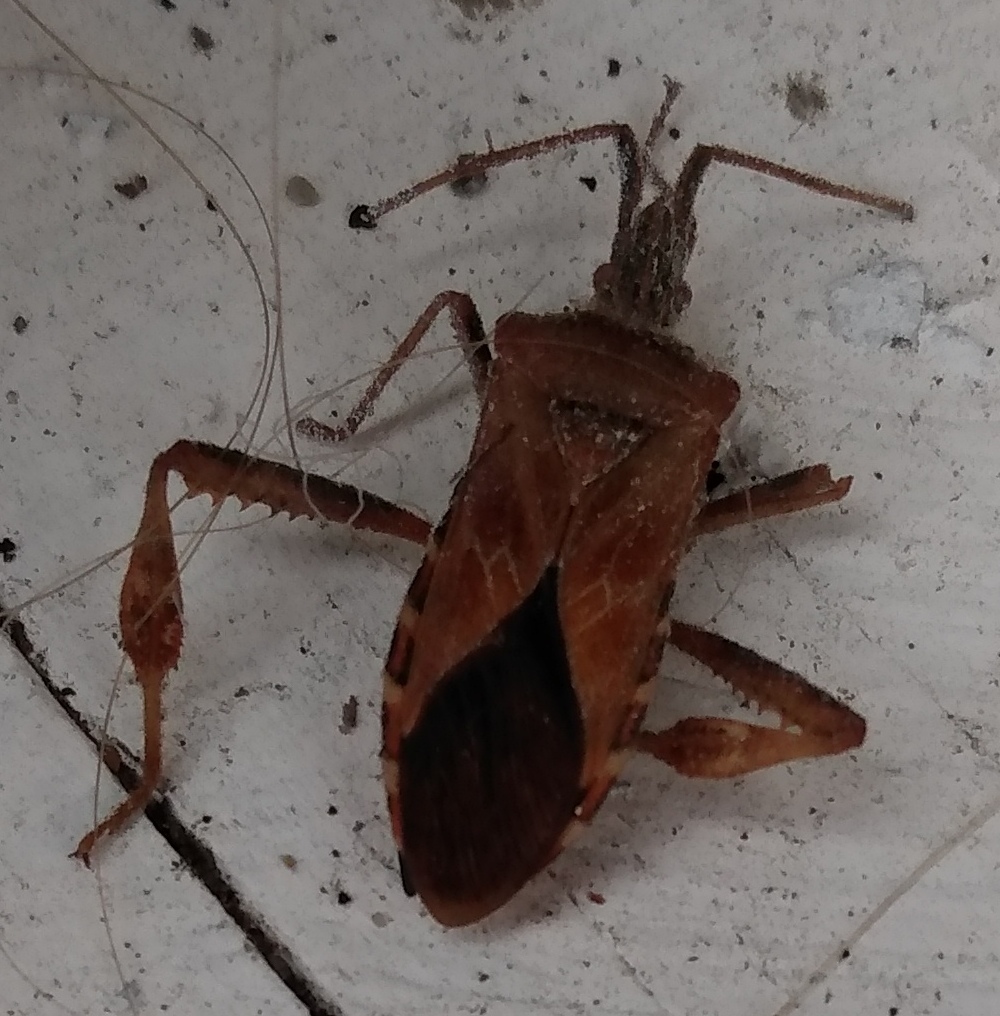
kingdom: Animalia
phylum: Arthropoda
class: Insecta
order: Hemiptera
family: Coreidae
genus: Leptoglossus
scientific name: Leptoglossus occidentalis
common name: Western conifer-seed bug
